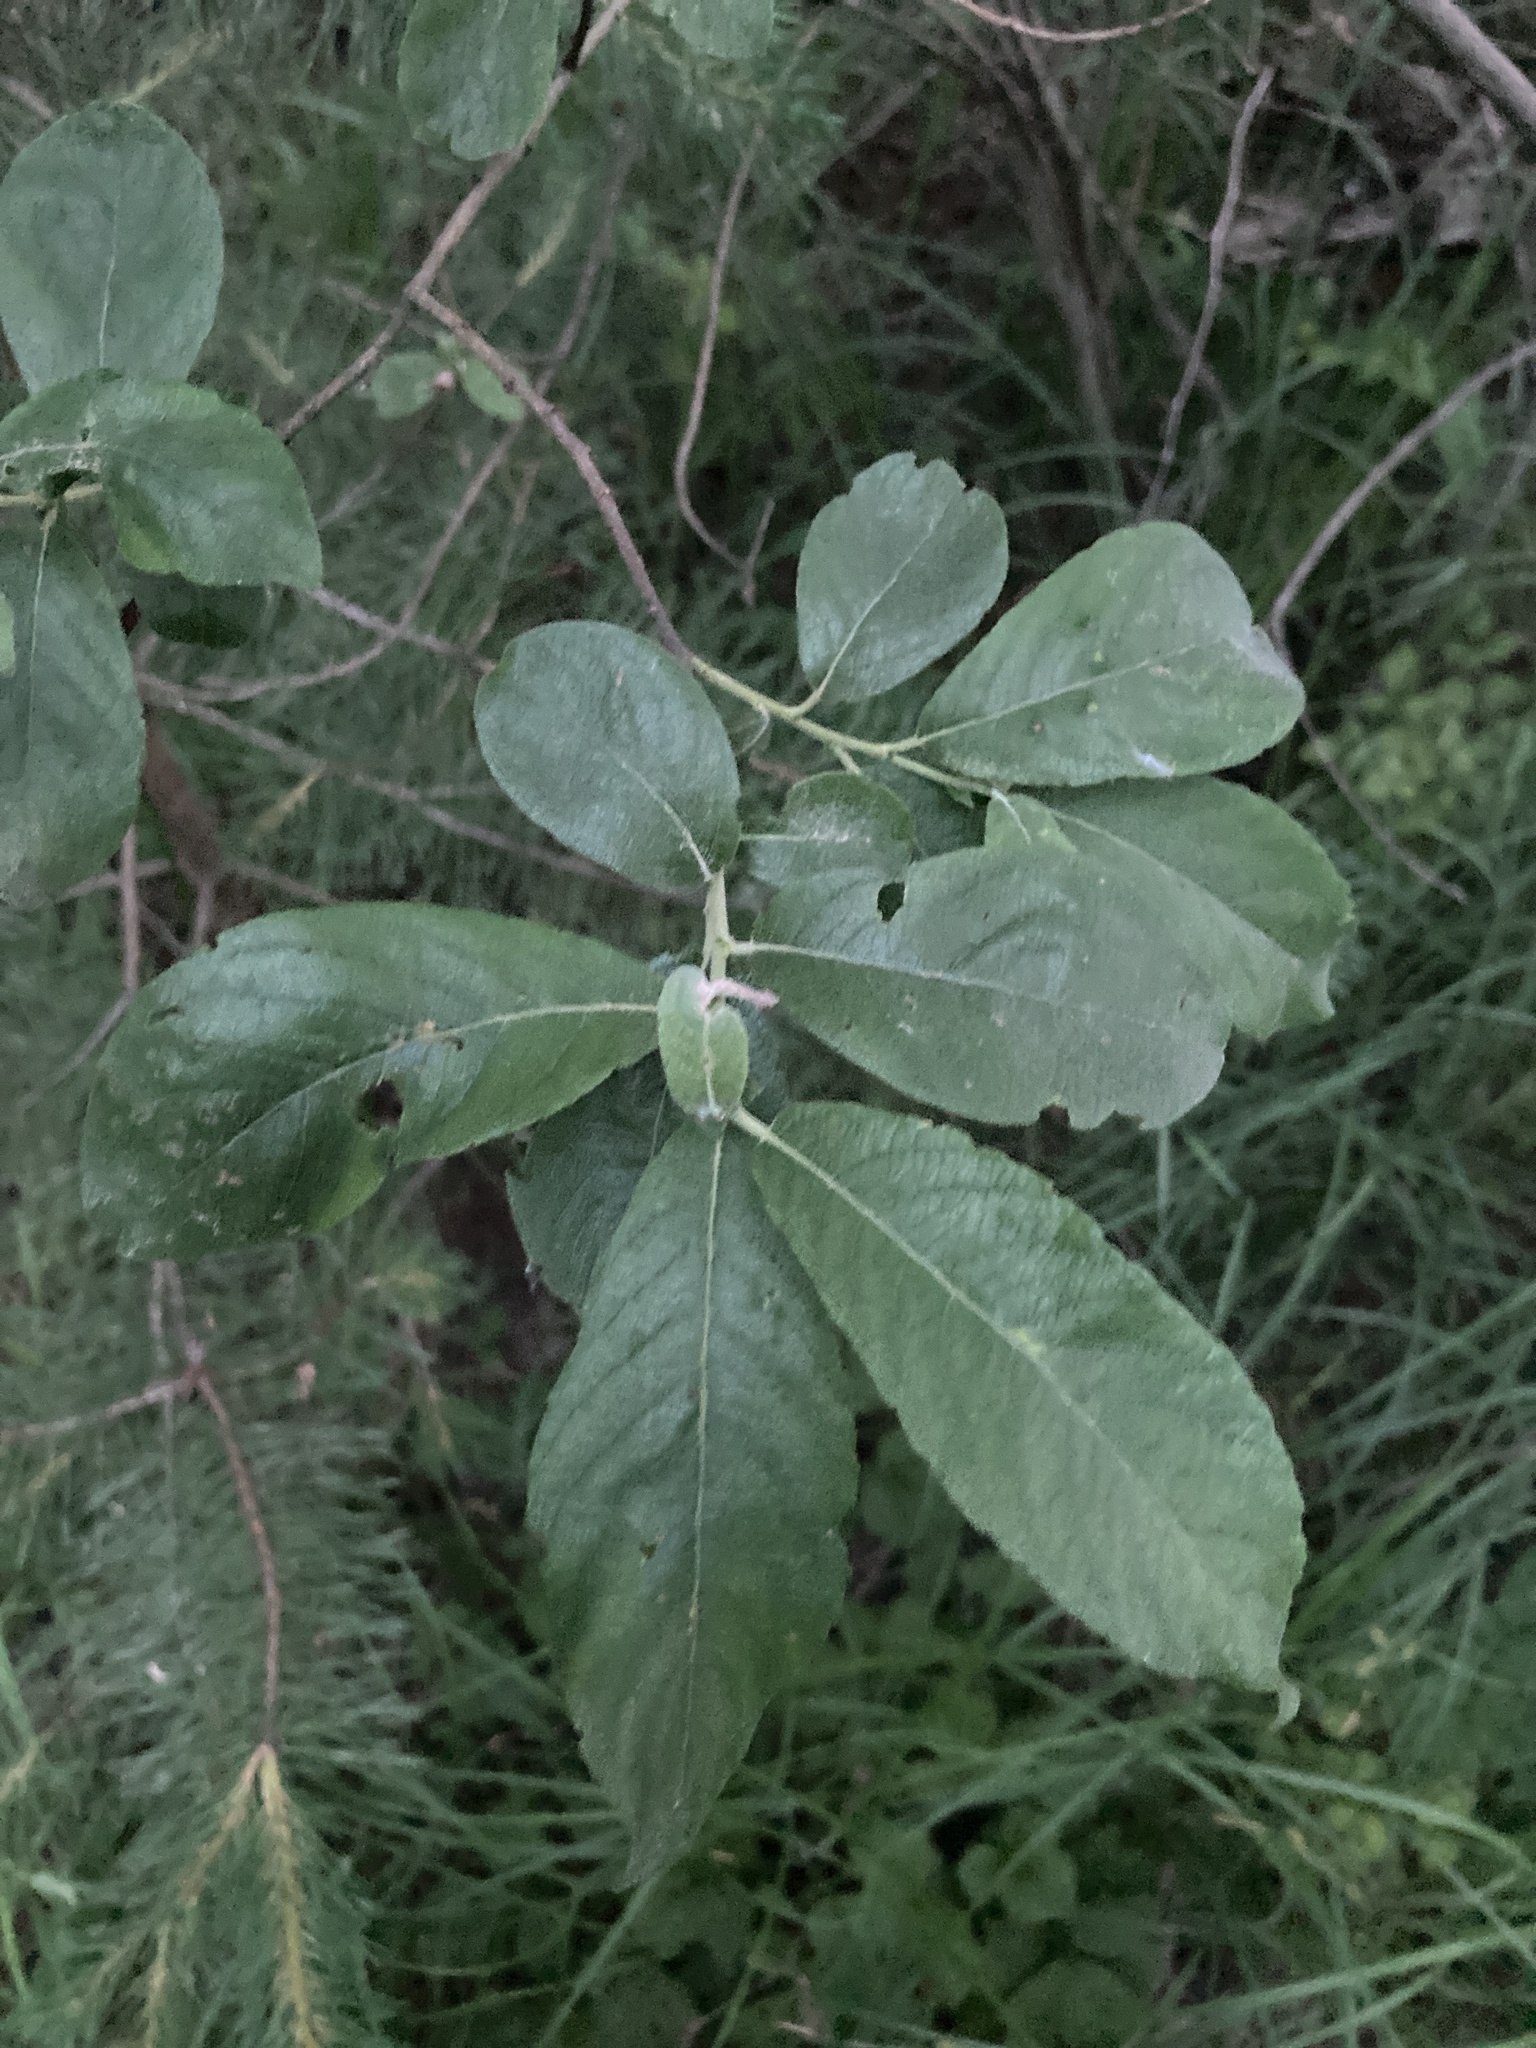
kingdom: Plantae
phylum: Tracheophyta
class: Magnoliopsida
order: Malpighiales
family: Salicaceae
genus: Salix
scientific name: Salix cinerea
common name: Common sallow
